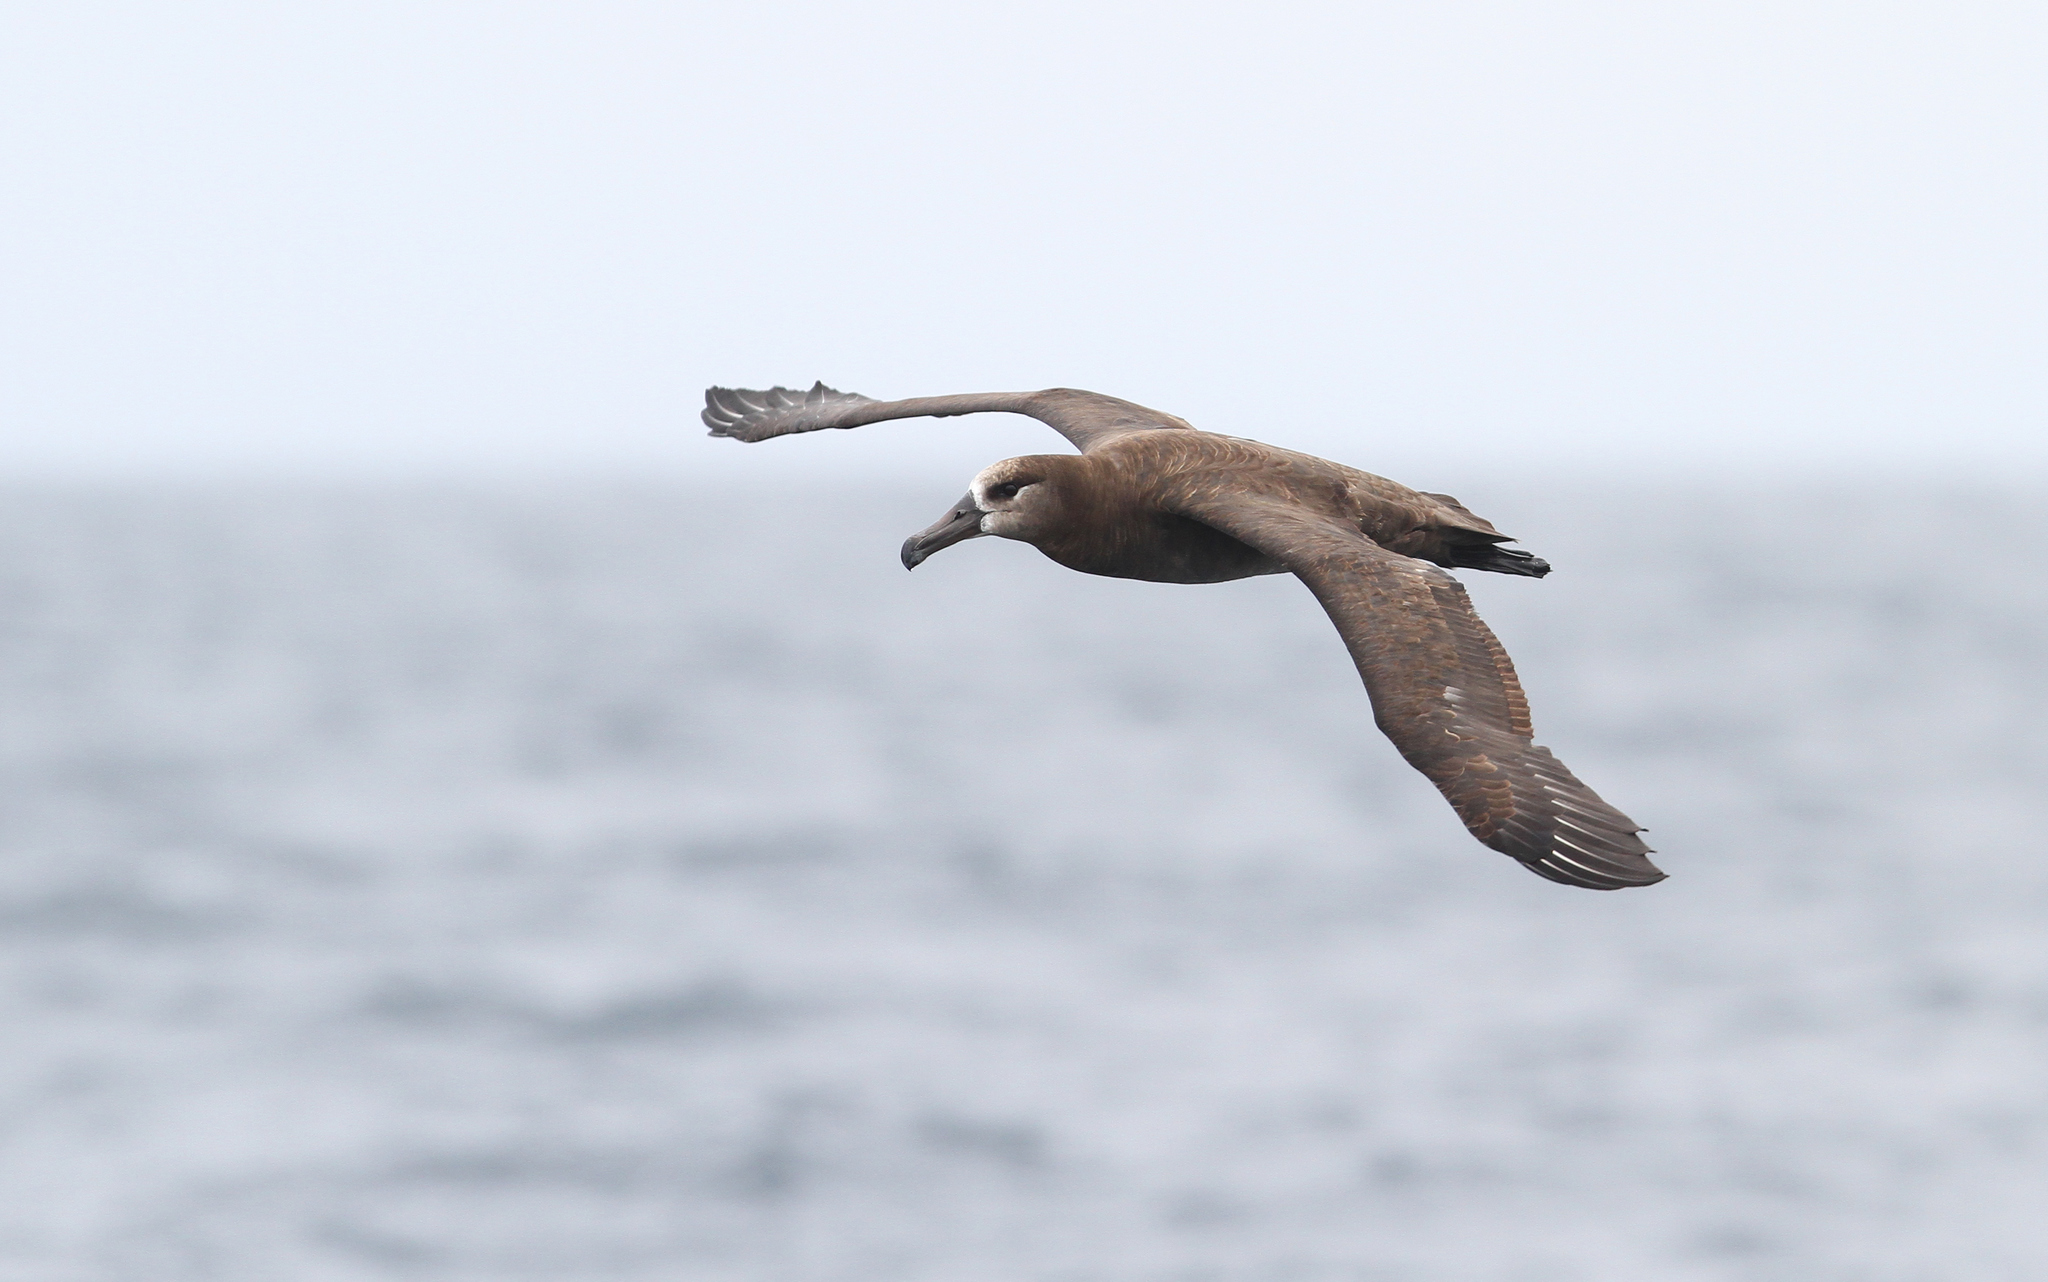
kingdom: Animalia
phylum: Chordata
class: Aves
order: Procellariiformes
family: Diomedeidae
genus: Phoebastria
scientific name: Phoebastria nigripes
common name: Black-footed albatross
